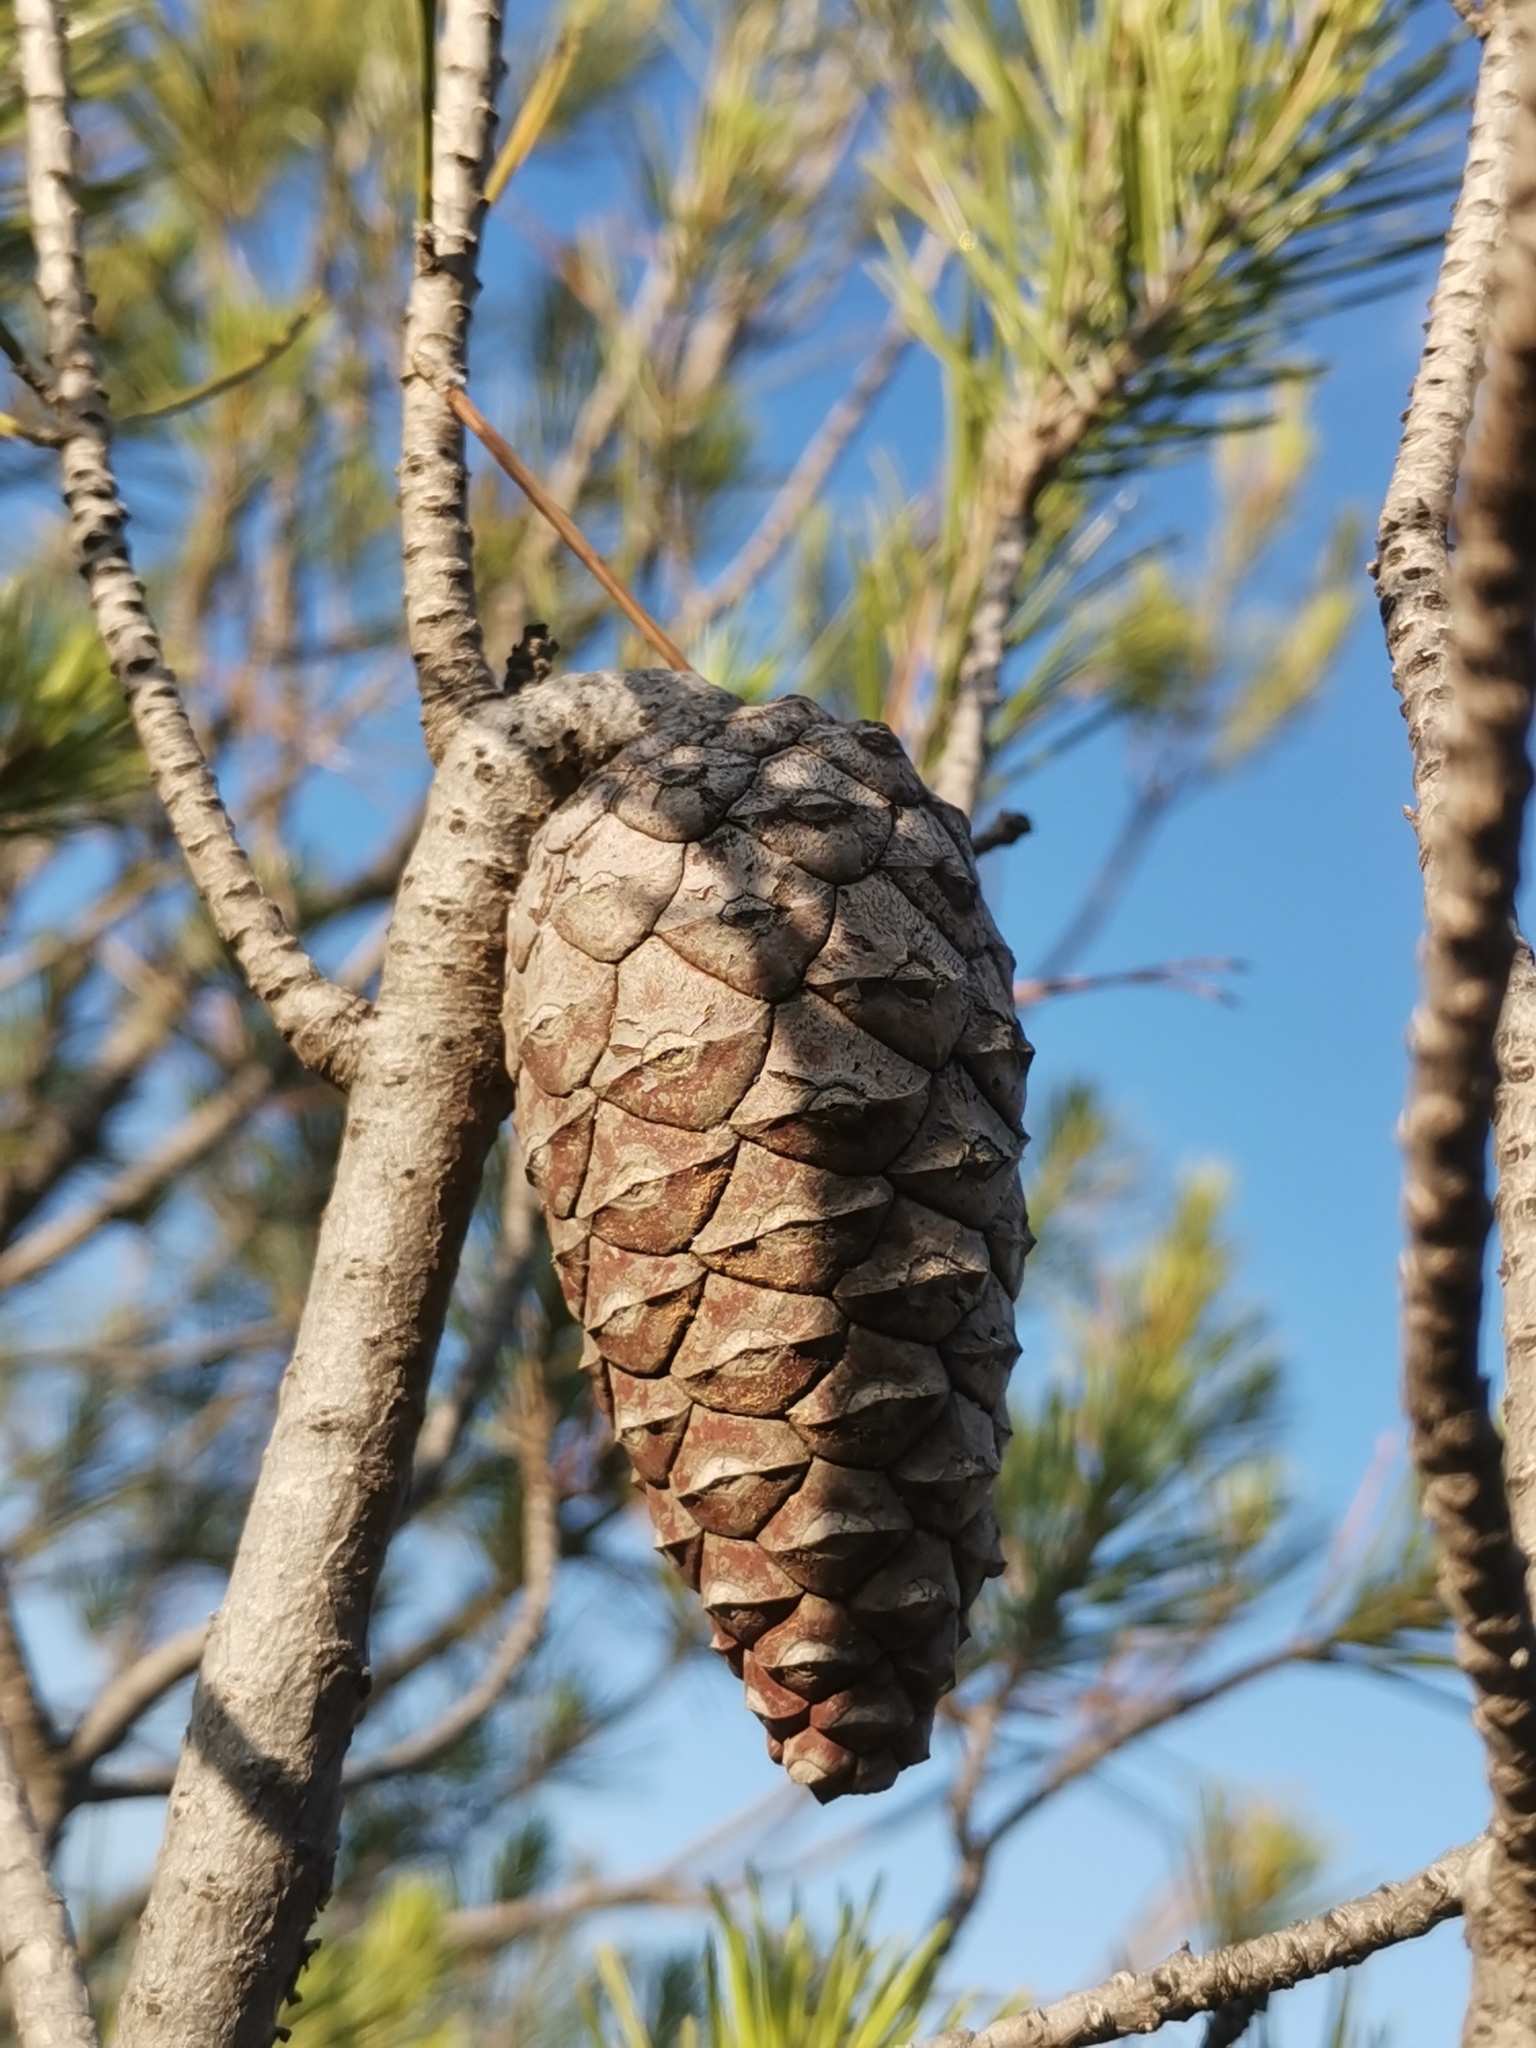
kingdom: Plantae
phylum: Tracheophyta
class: Pinopsida
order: Pinales
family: Pinaceae
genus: Pinus
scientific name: Pinus halepensis
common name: Aleppo pine
